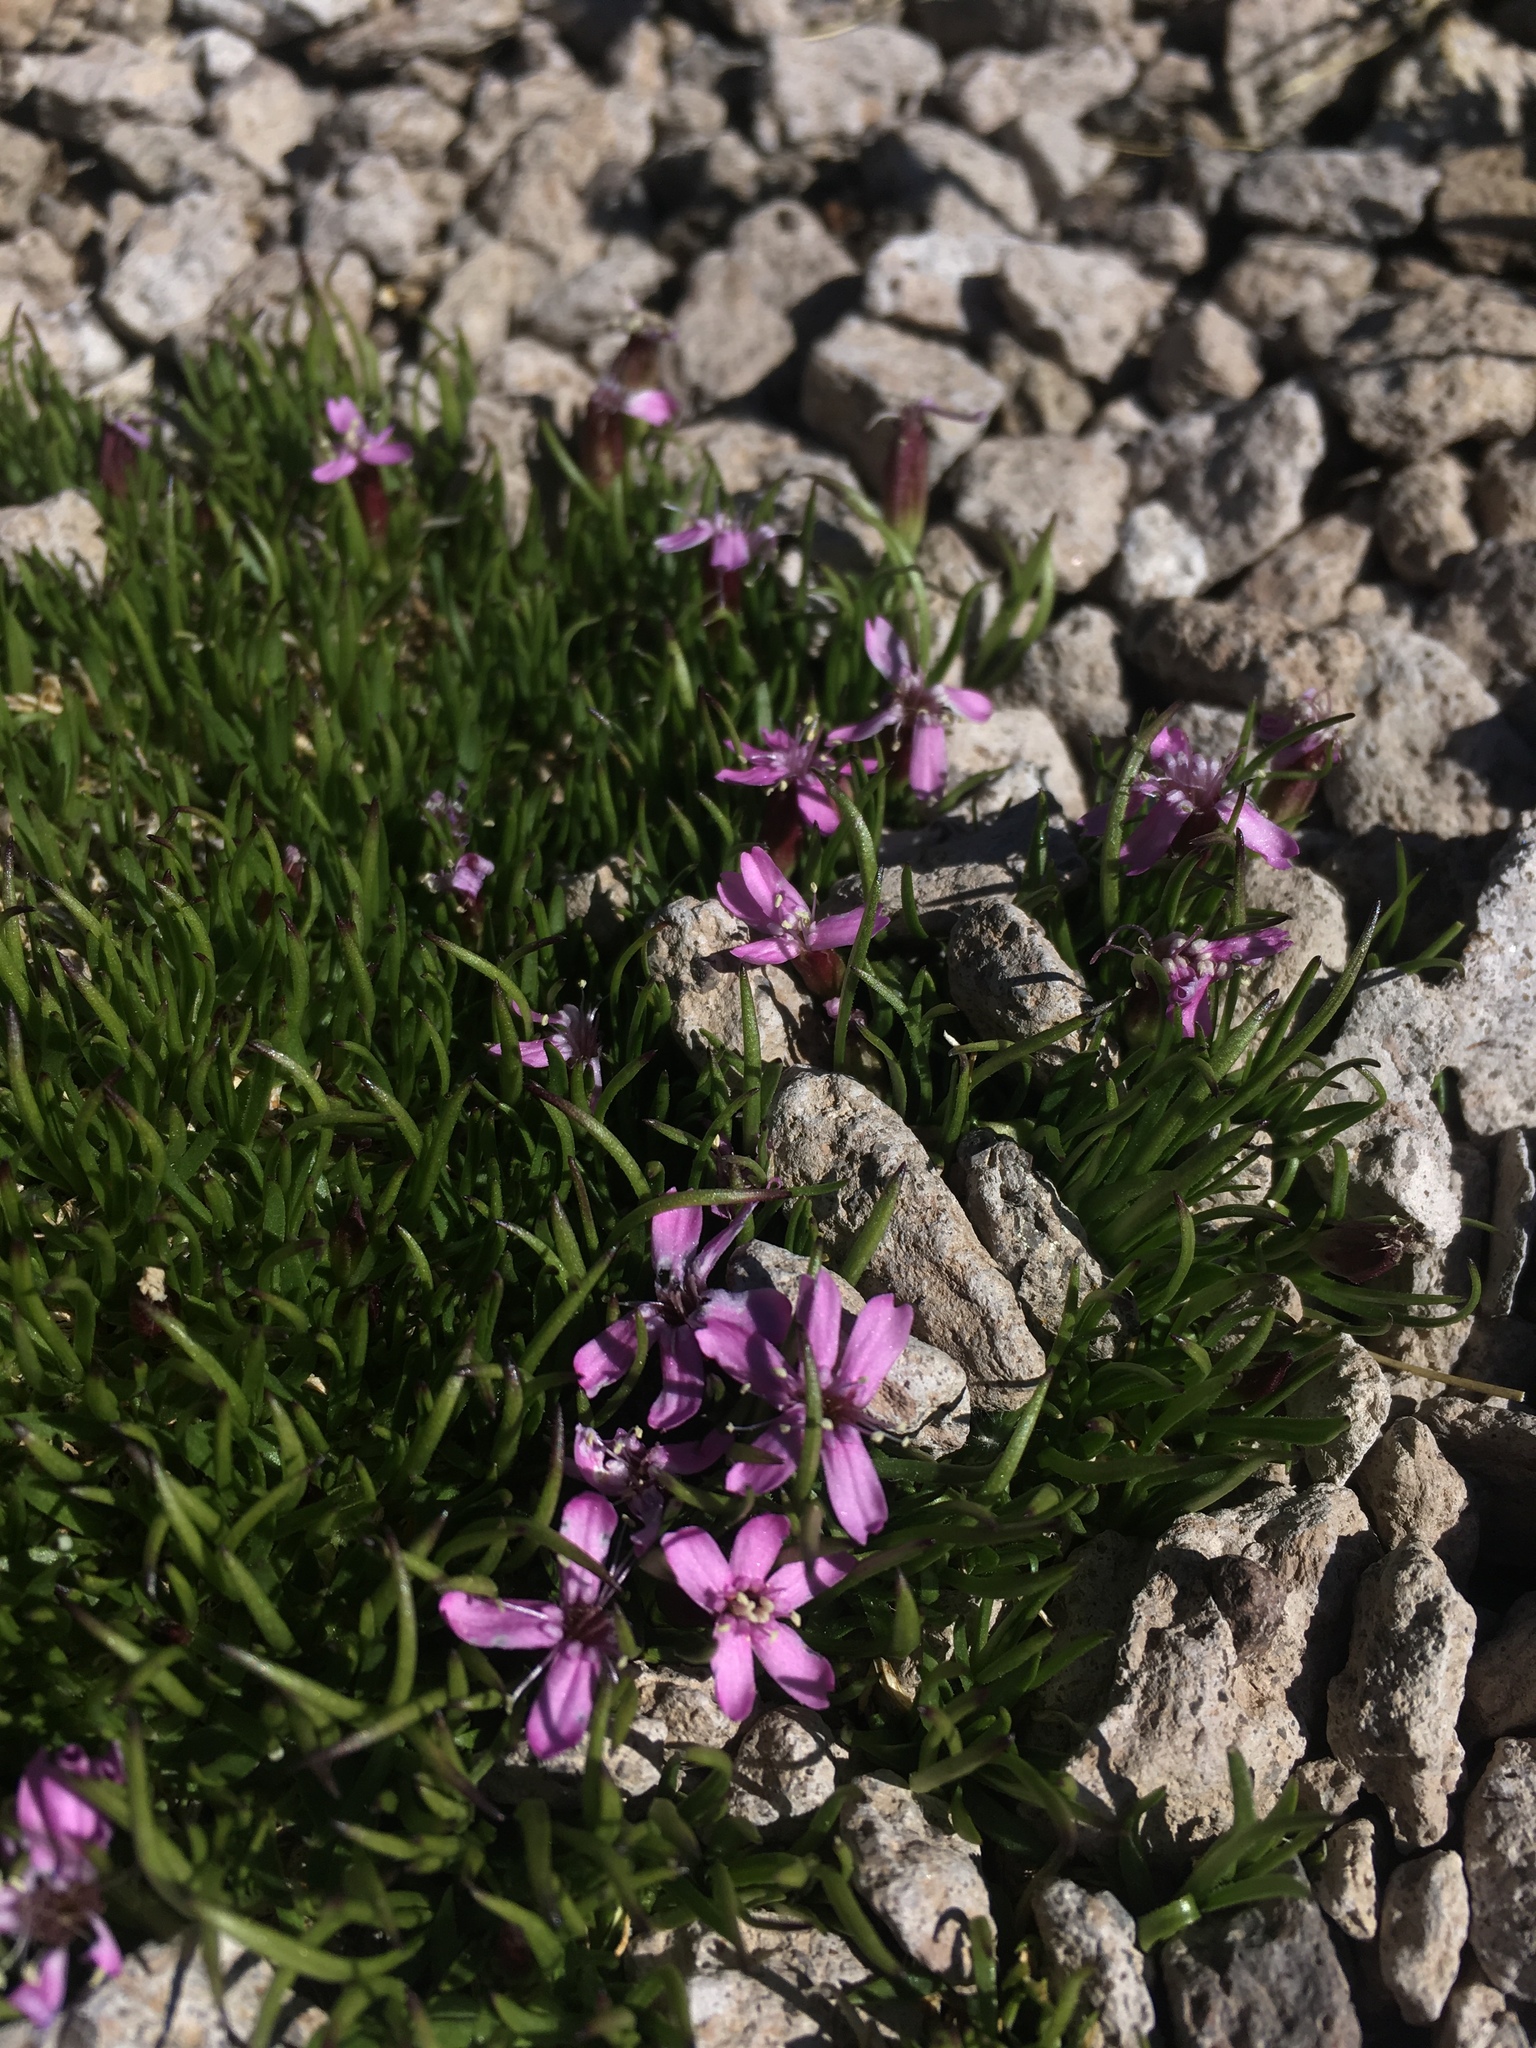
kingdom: Plantae
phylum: Tracheophyta
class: Magnoliopsida
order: Caryophyllales
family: Caryophyllaceae
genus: Silene
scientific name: Silene acaulis
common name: Moss campion
